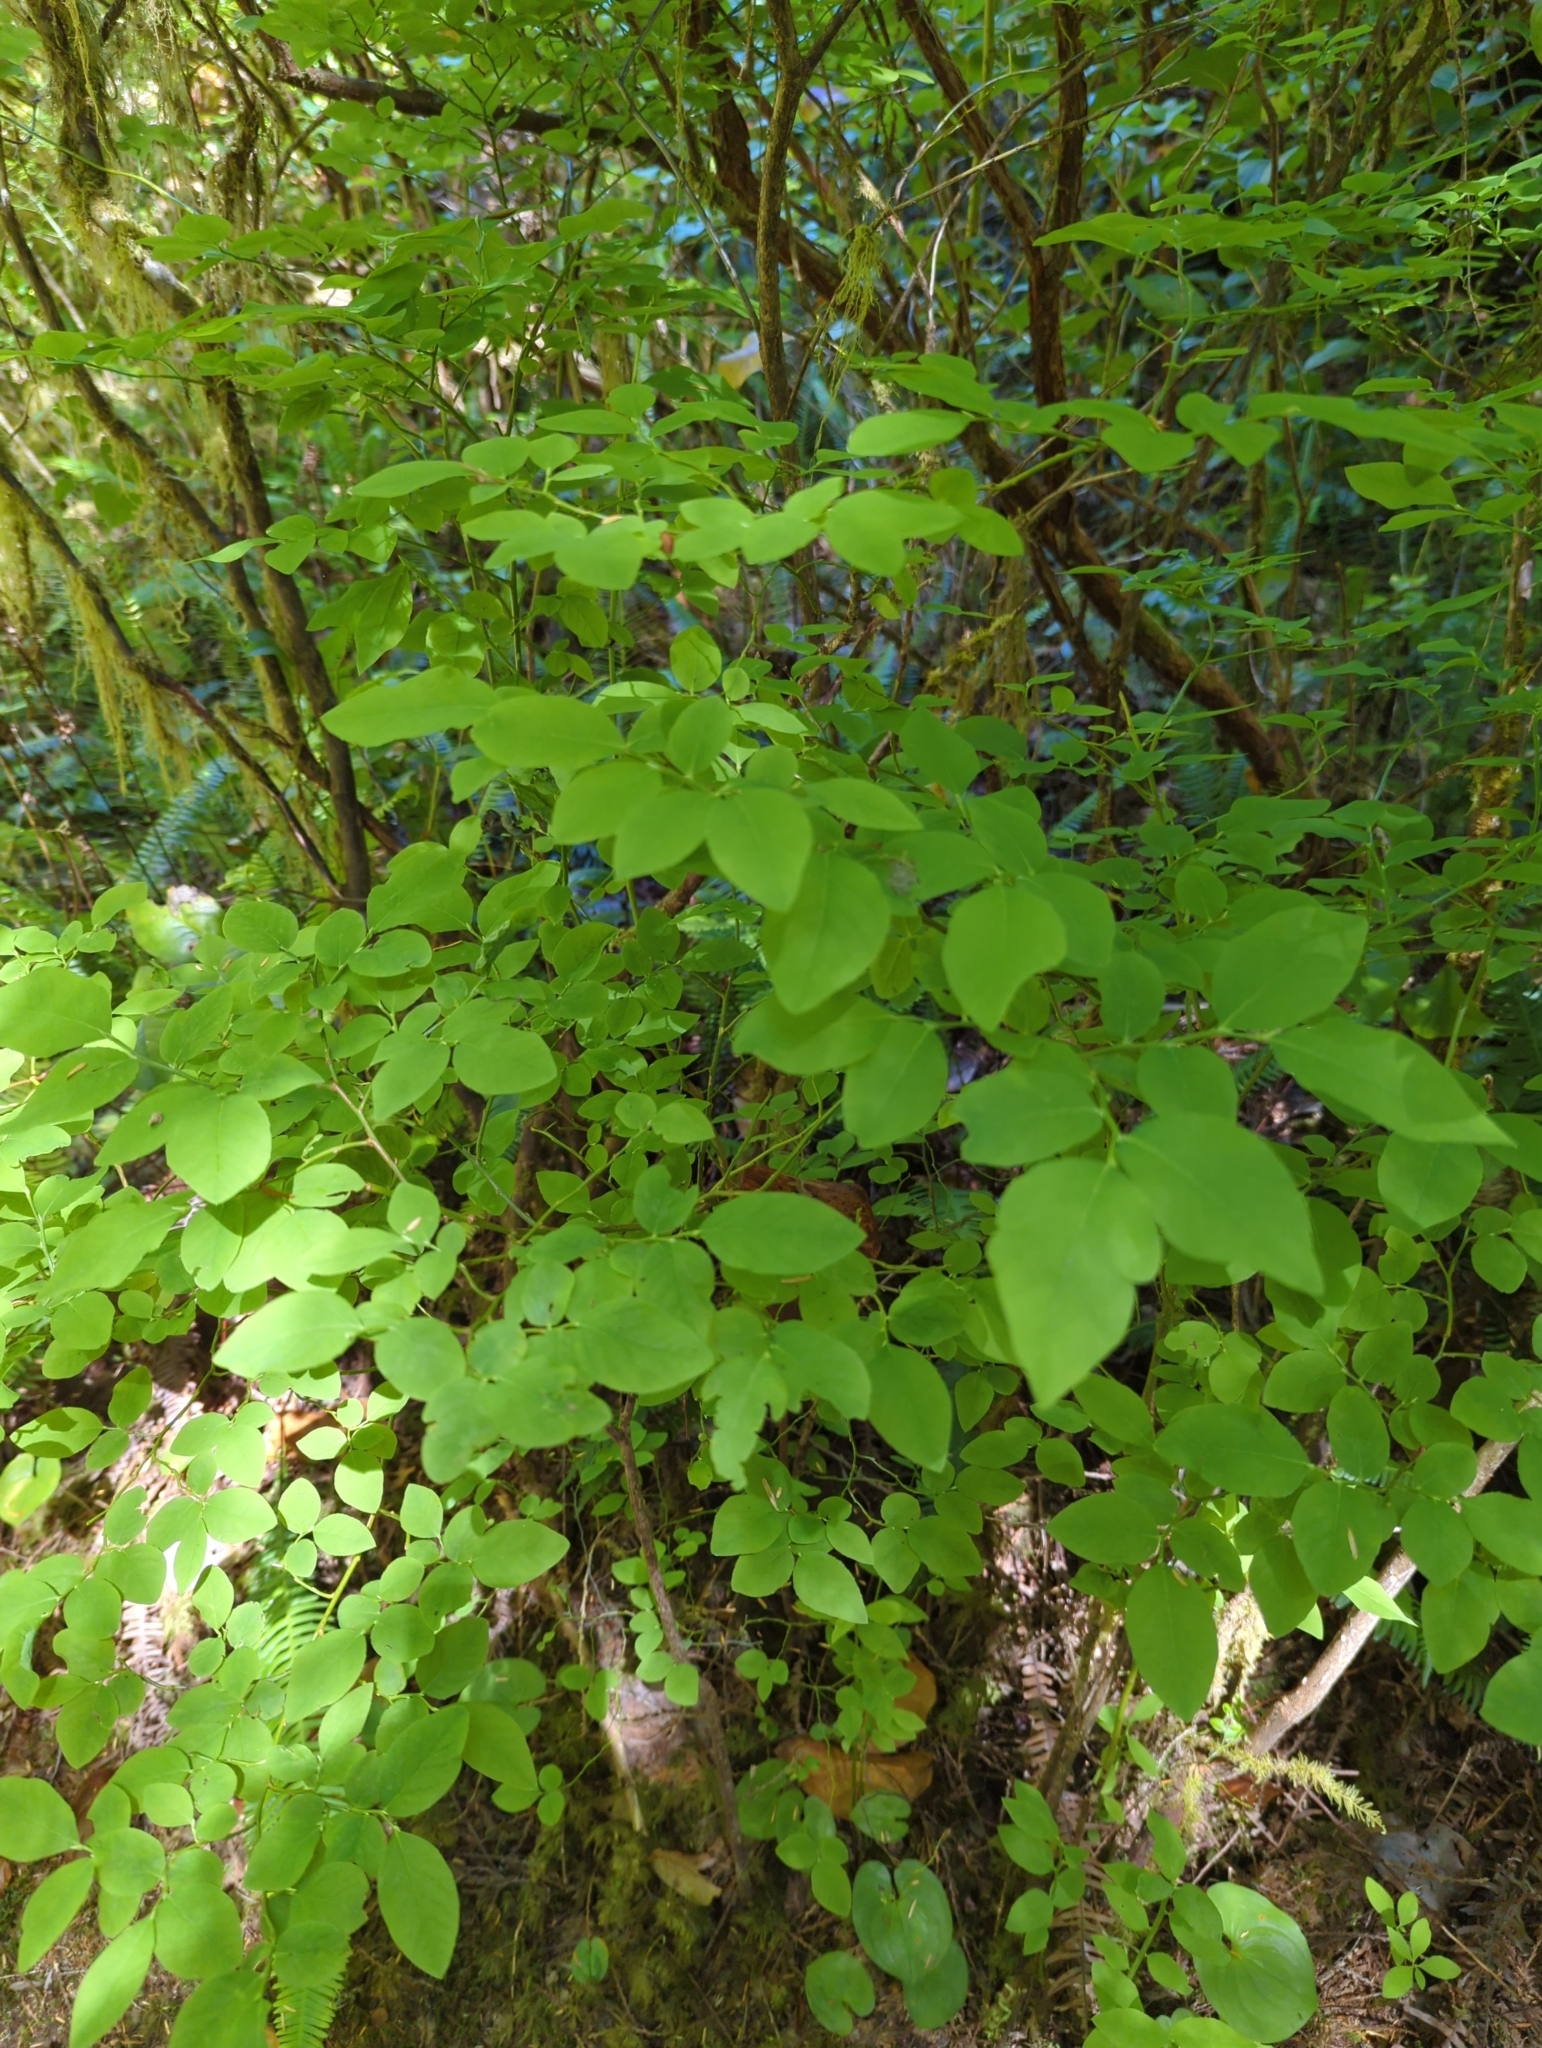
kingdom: Plantae
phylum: Tracheophyta
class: Magnoliopsida
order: Ericales
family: Ericaceae
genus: Vaccinium
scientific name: Vaccinium ovalifolium
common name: Early blueberry
